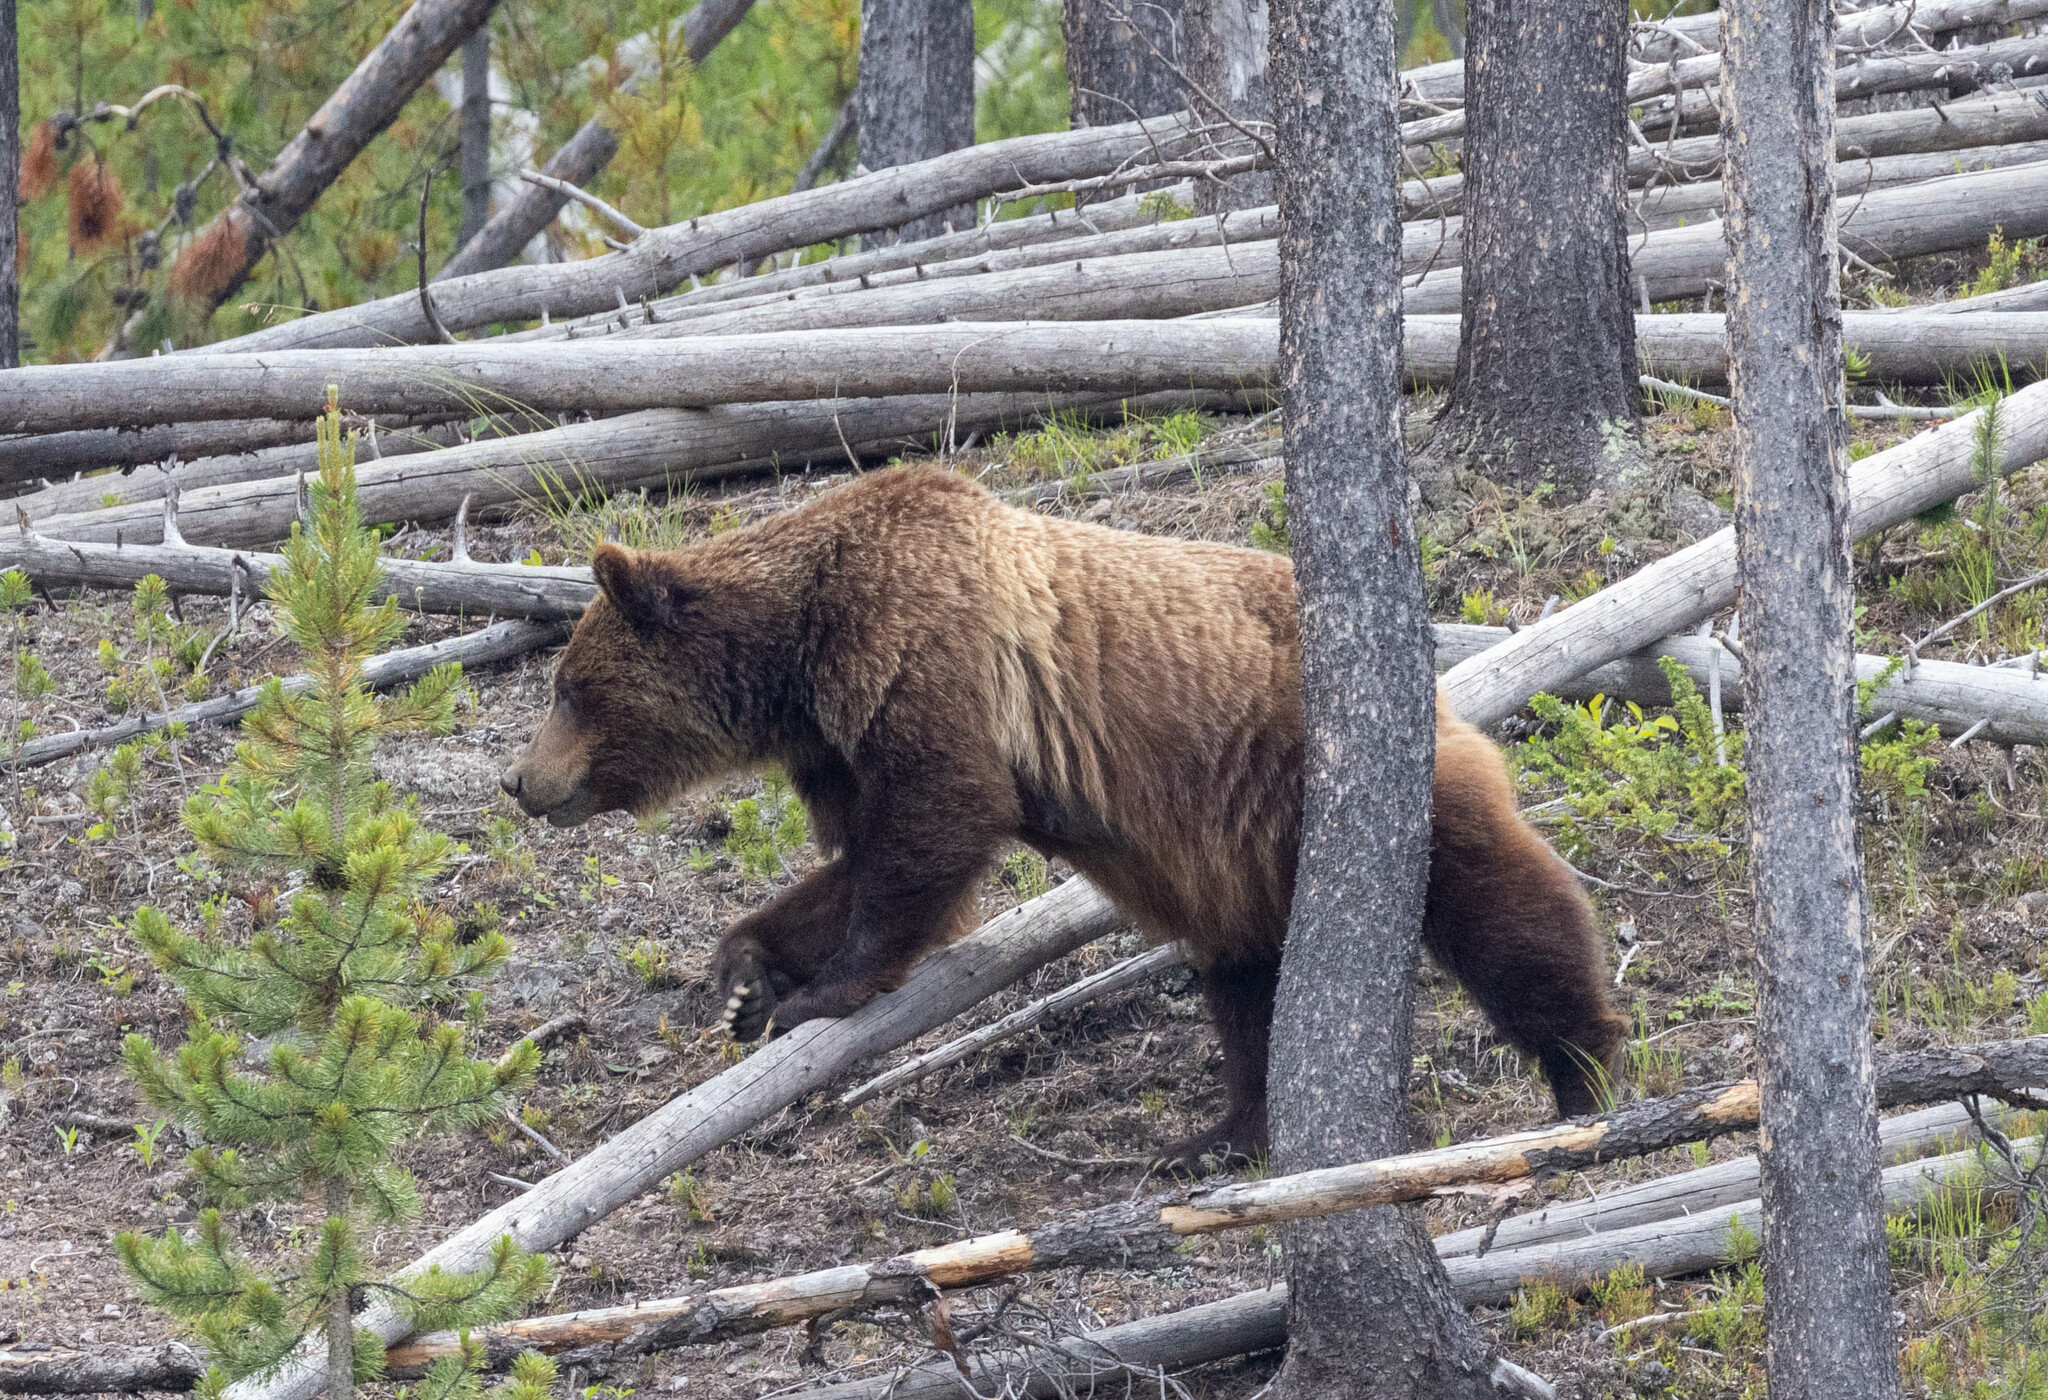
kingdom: Animalia
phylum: Chordata
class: Mammalia
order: Carnivora
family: Ursidae
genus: Ursus
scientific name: Ursus arctos
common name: Brown bear
